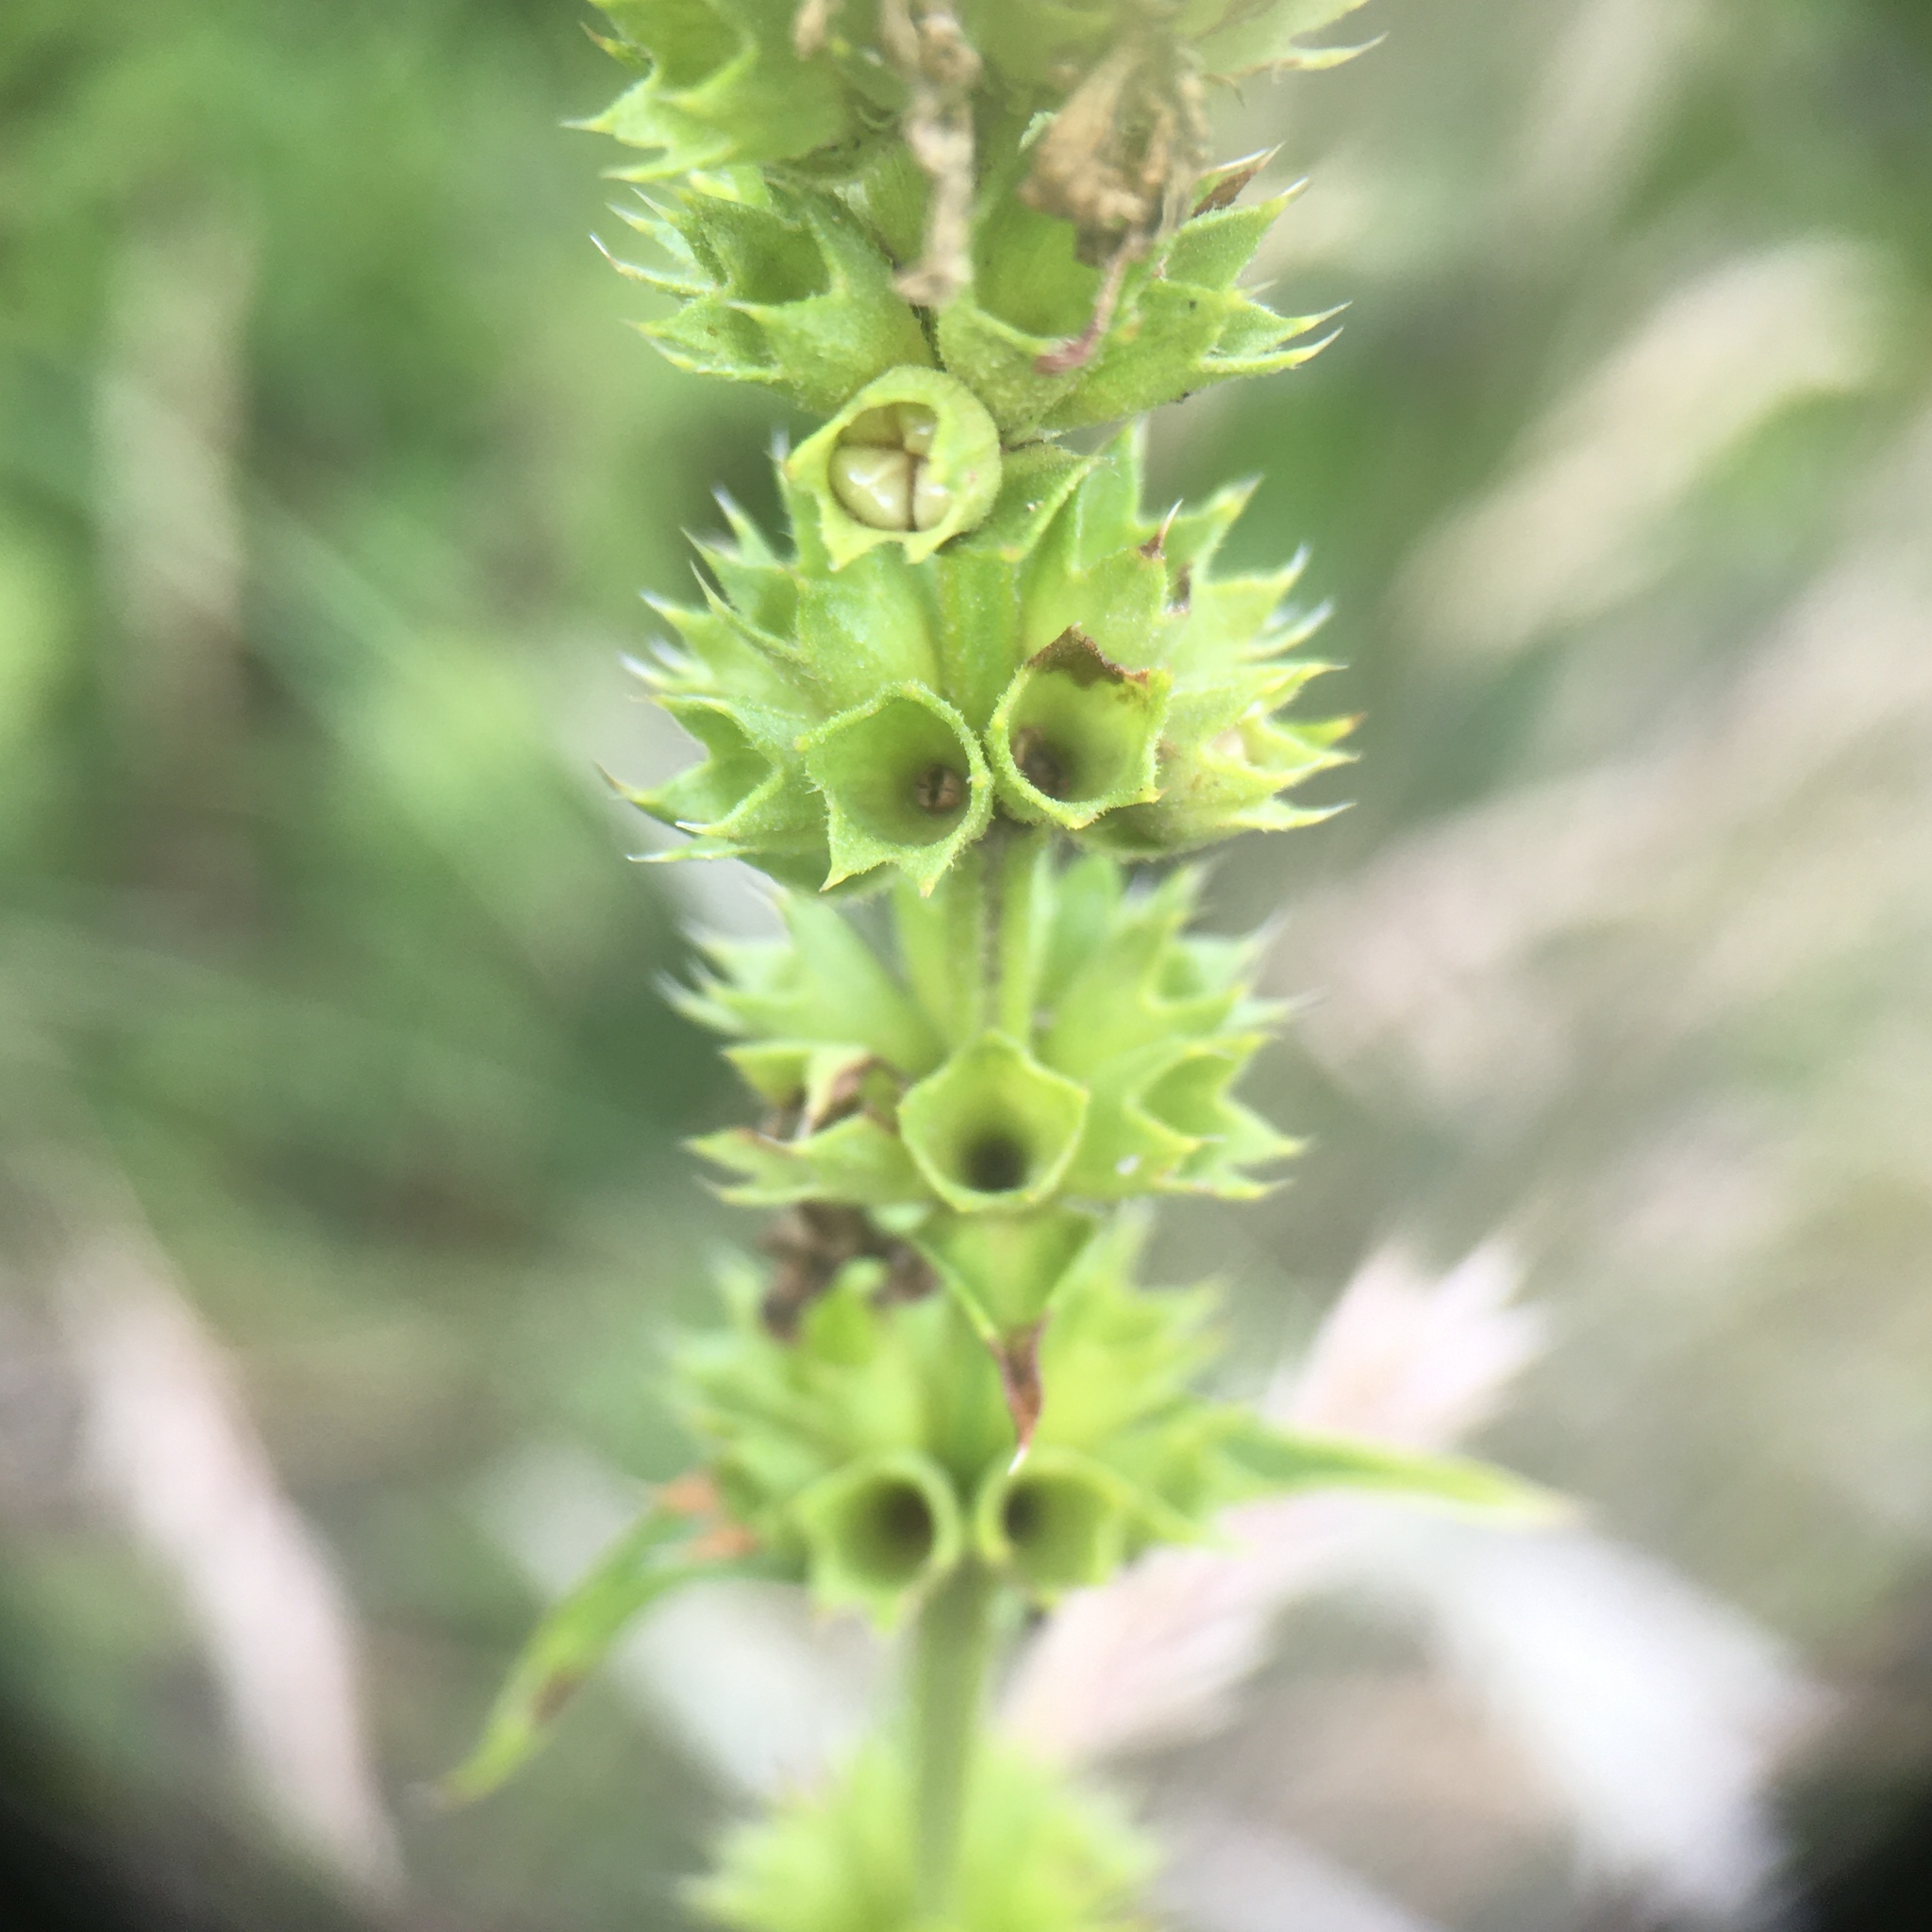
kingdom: Plantae
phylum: Tracheophyta
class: Magnoliopsida
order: Lamiales
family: Lamiaceae
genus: Stachys
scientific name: Stachys recta
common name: Perennial yellow-woundwort
